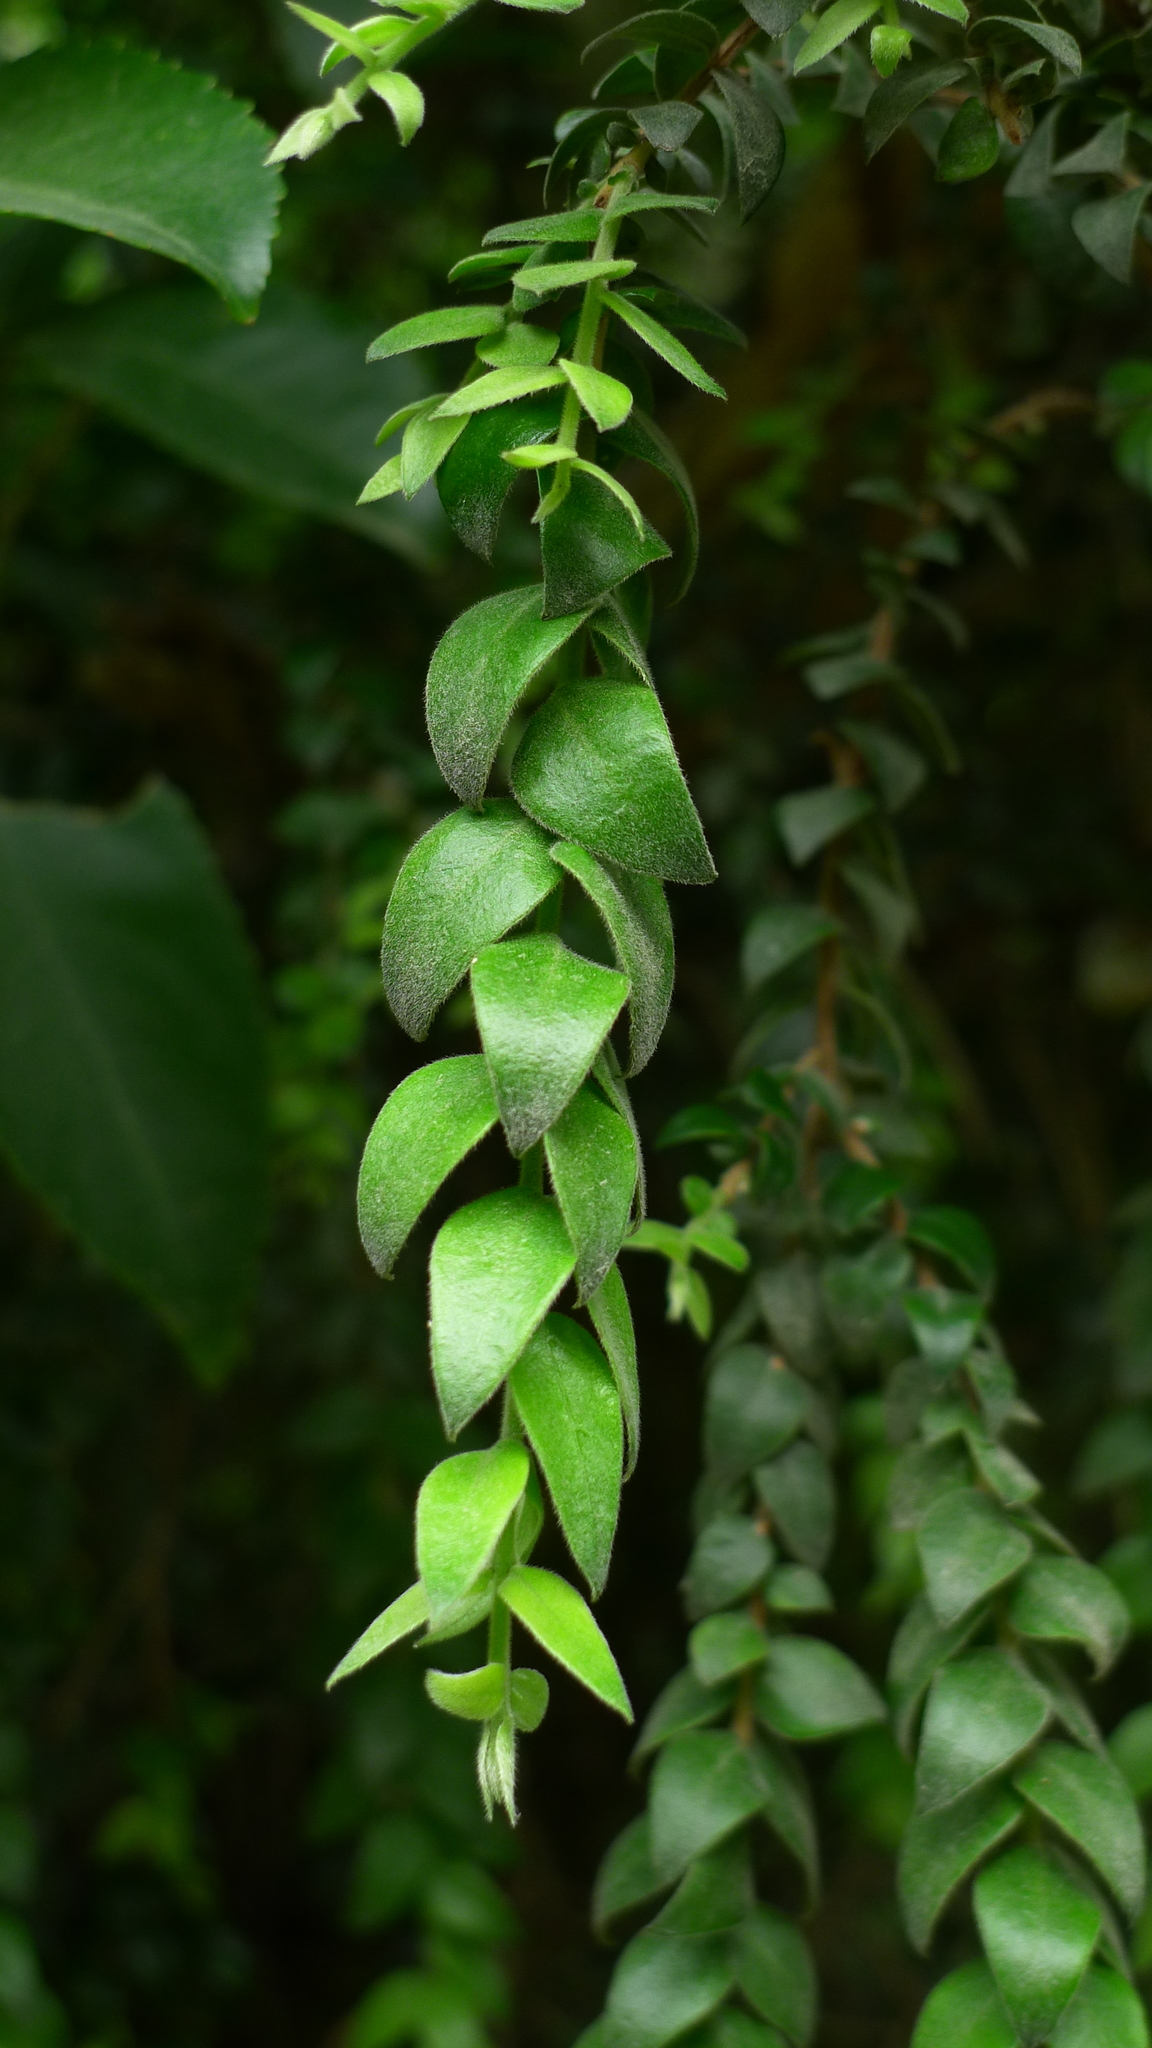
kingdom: Plantae
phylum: Tracheophyta
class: Magnoliopsida
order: Myrtales
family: Myrtaceae
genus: Metrosideros
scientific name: Metrosideros colensoi
